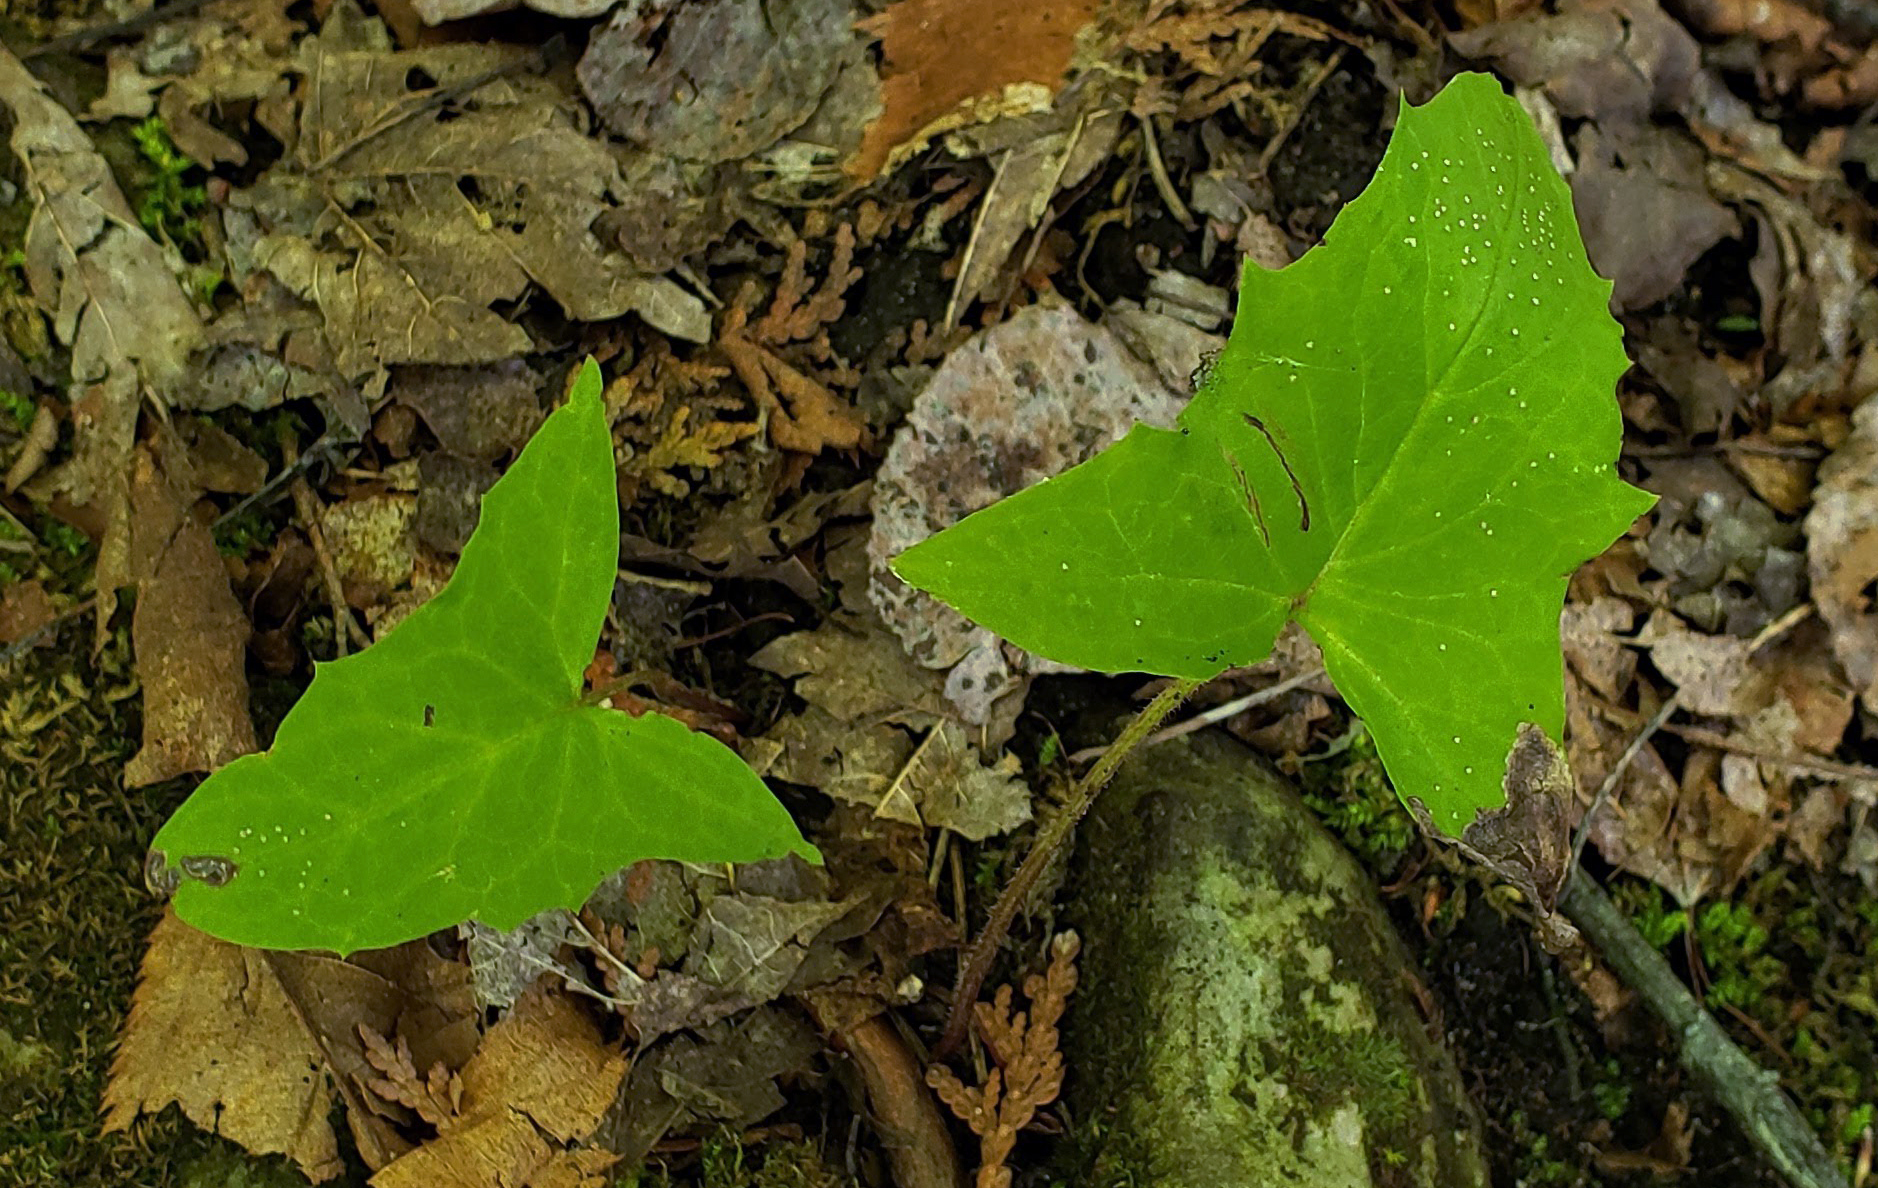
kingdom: Plantae
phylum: Tracheophyta
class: Magnoliopsida
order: Asterales
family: Asteraceae
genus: Nabalus
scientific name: Nabalus albus
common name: White rattlesnakeroot
